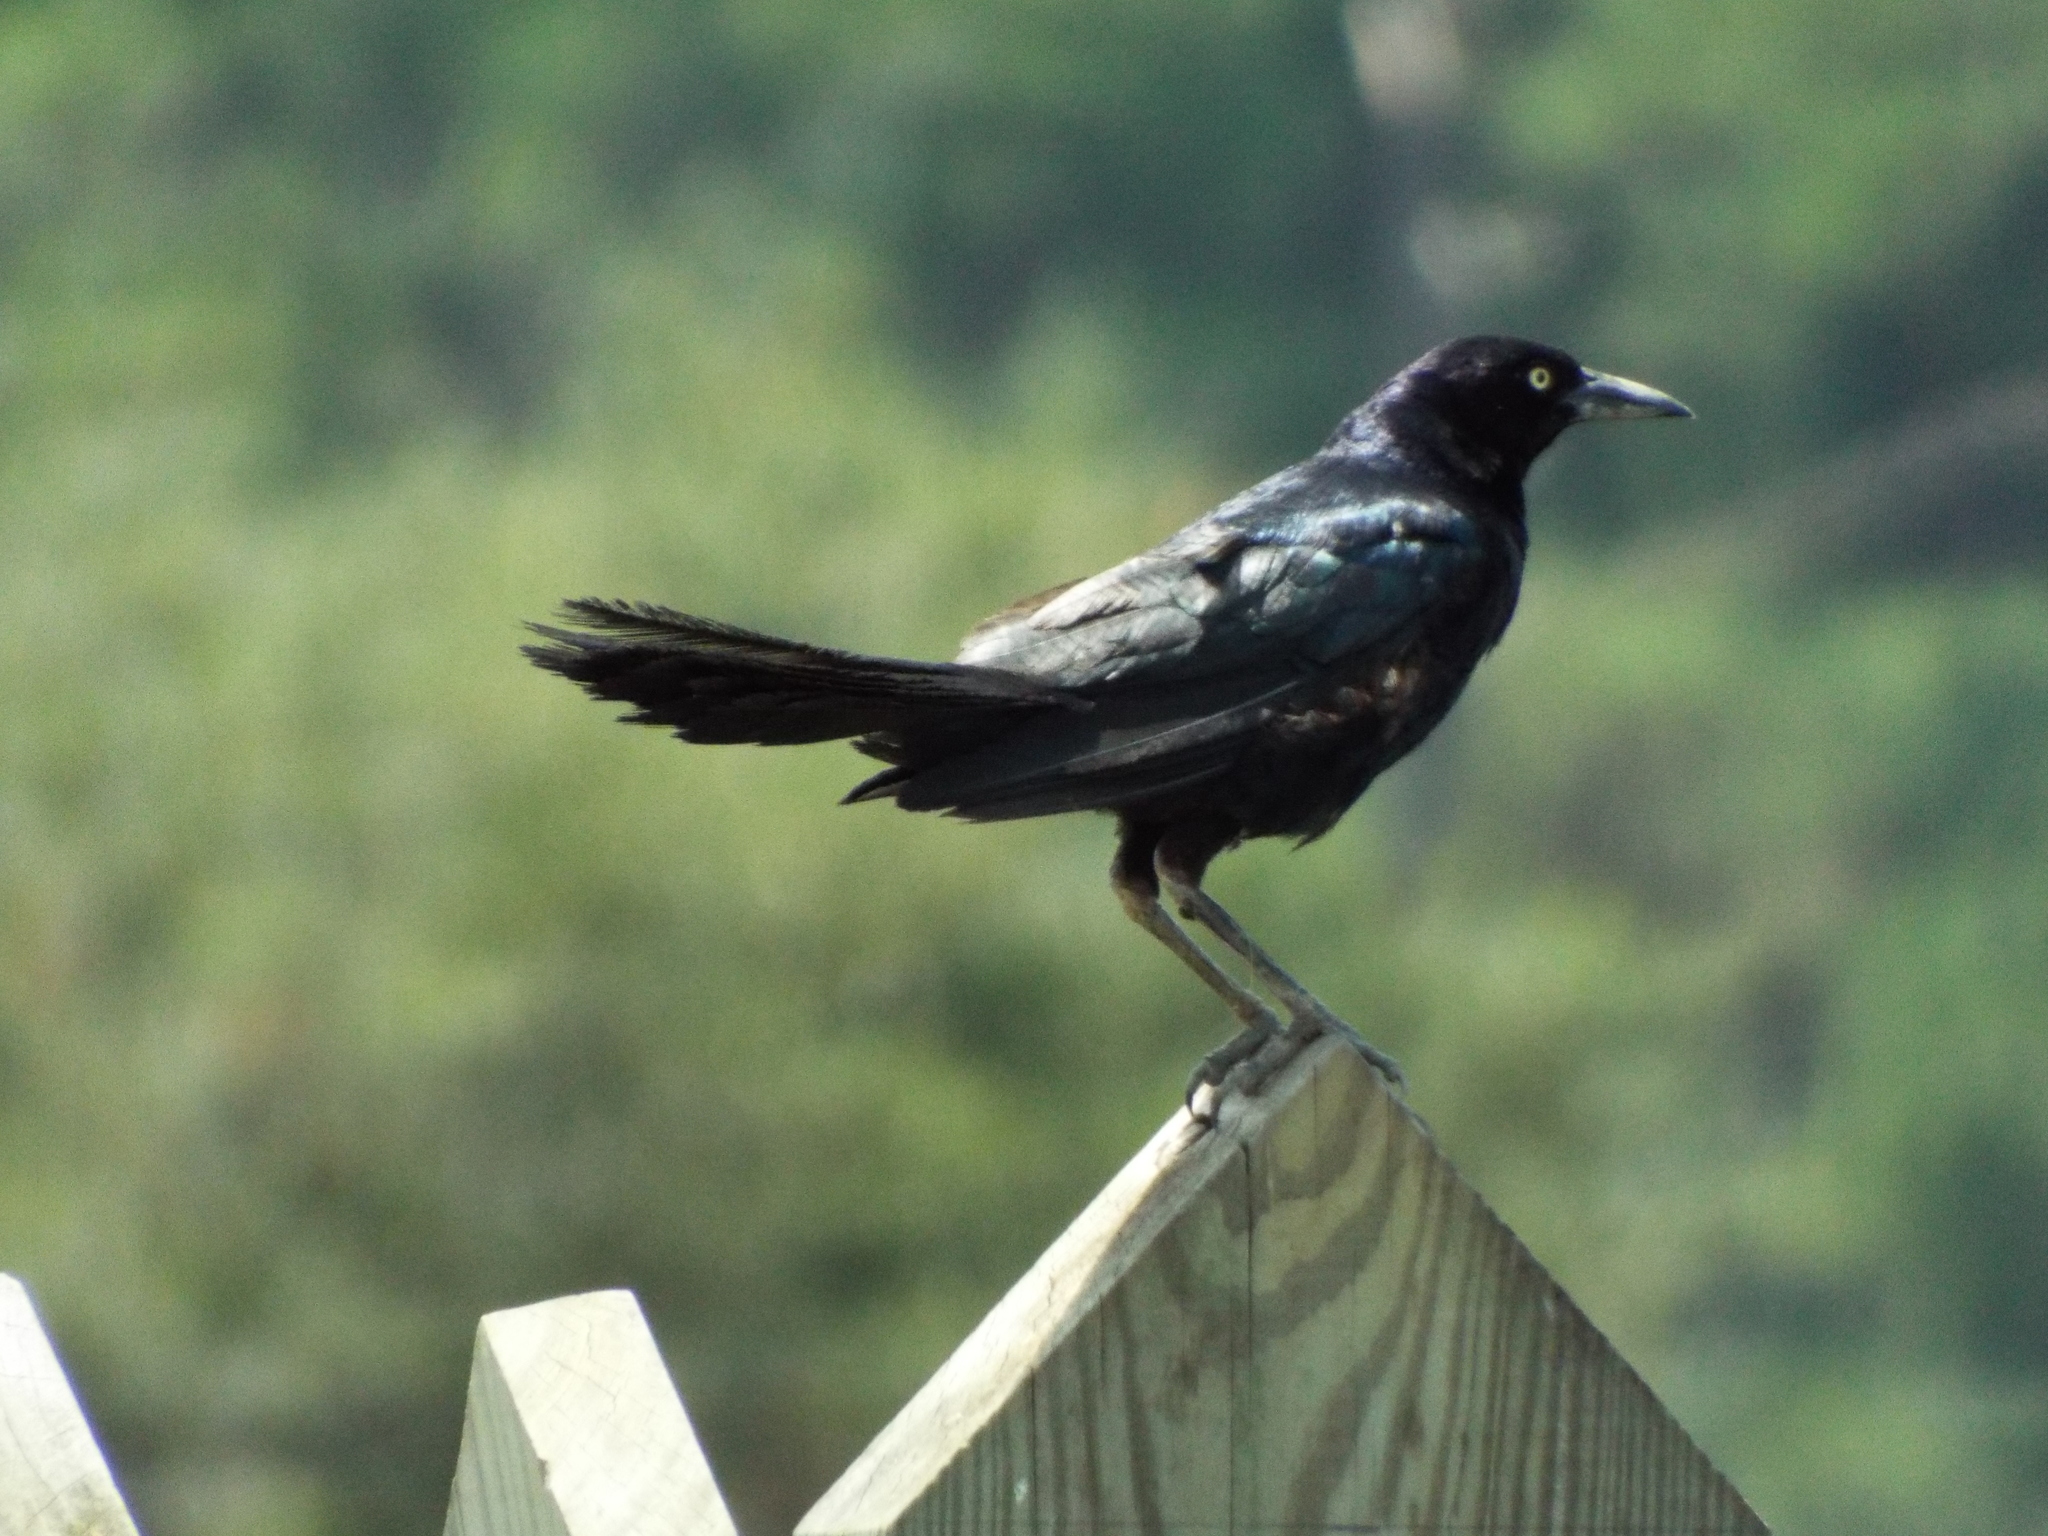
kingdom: Animalia
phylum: Chordata
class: Aves
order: Passeriformes
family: Icteridae
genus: Quiscalus
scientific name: Quiscalus major
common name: Boat-tailed grackle
